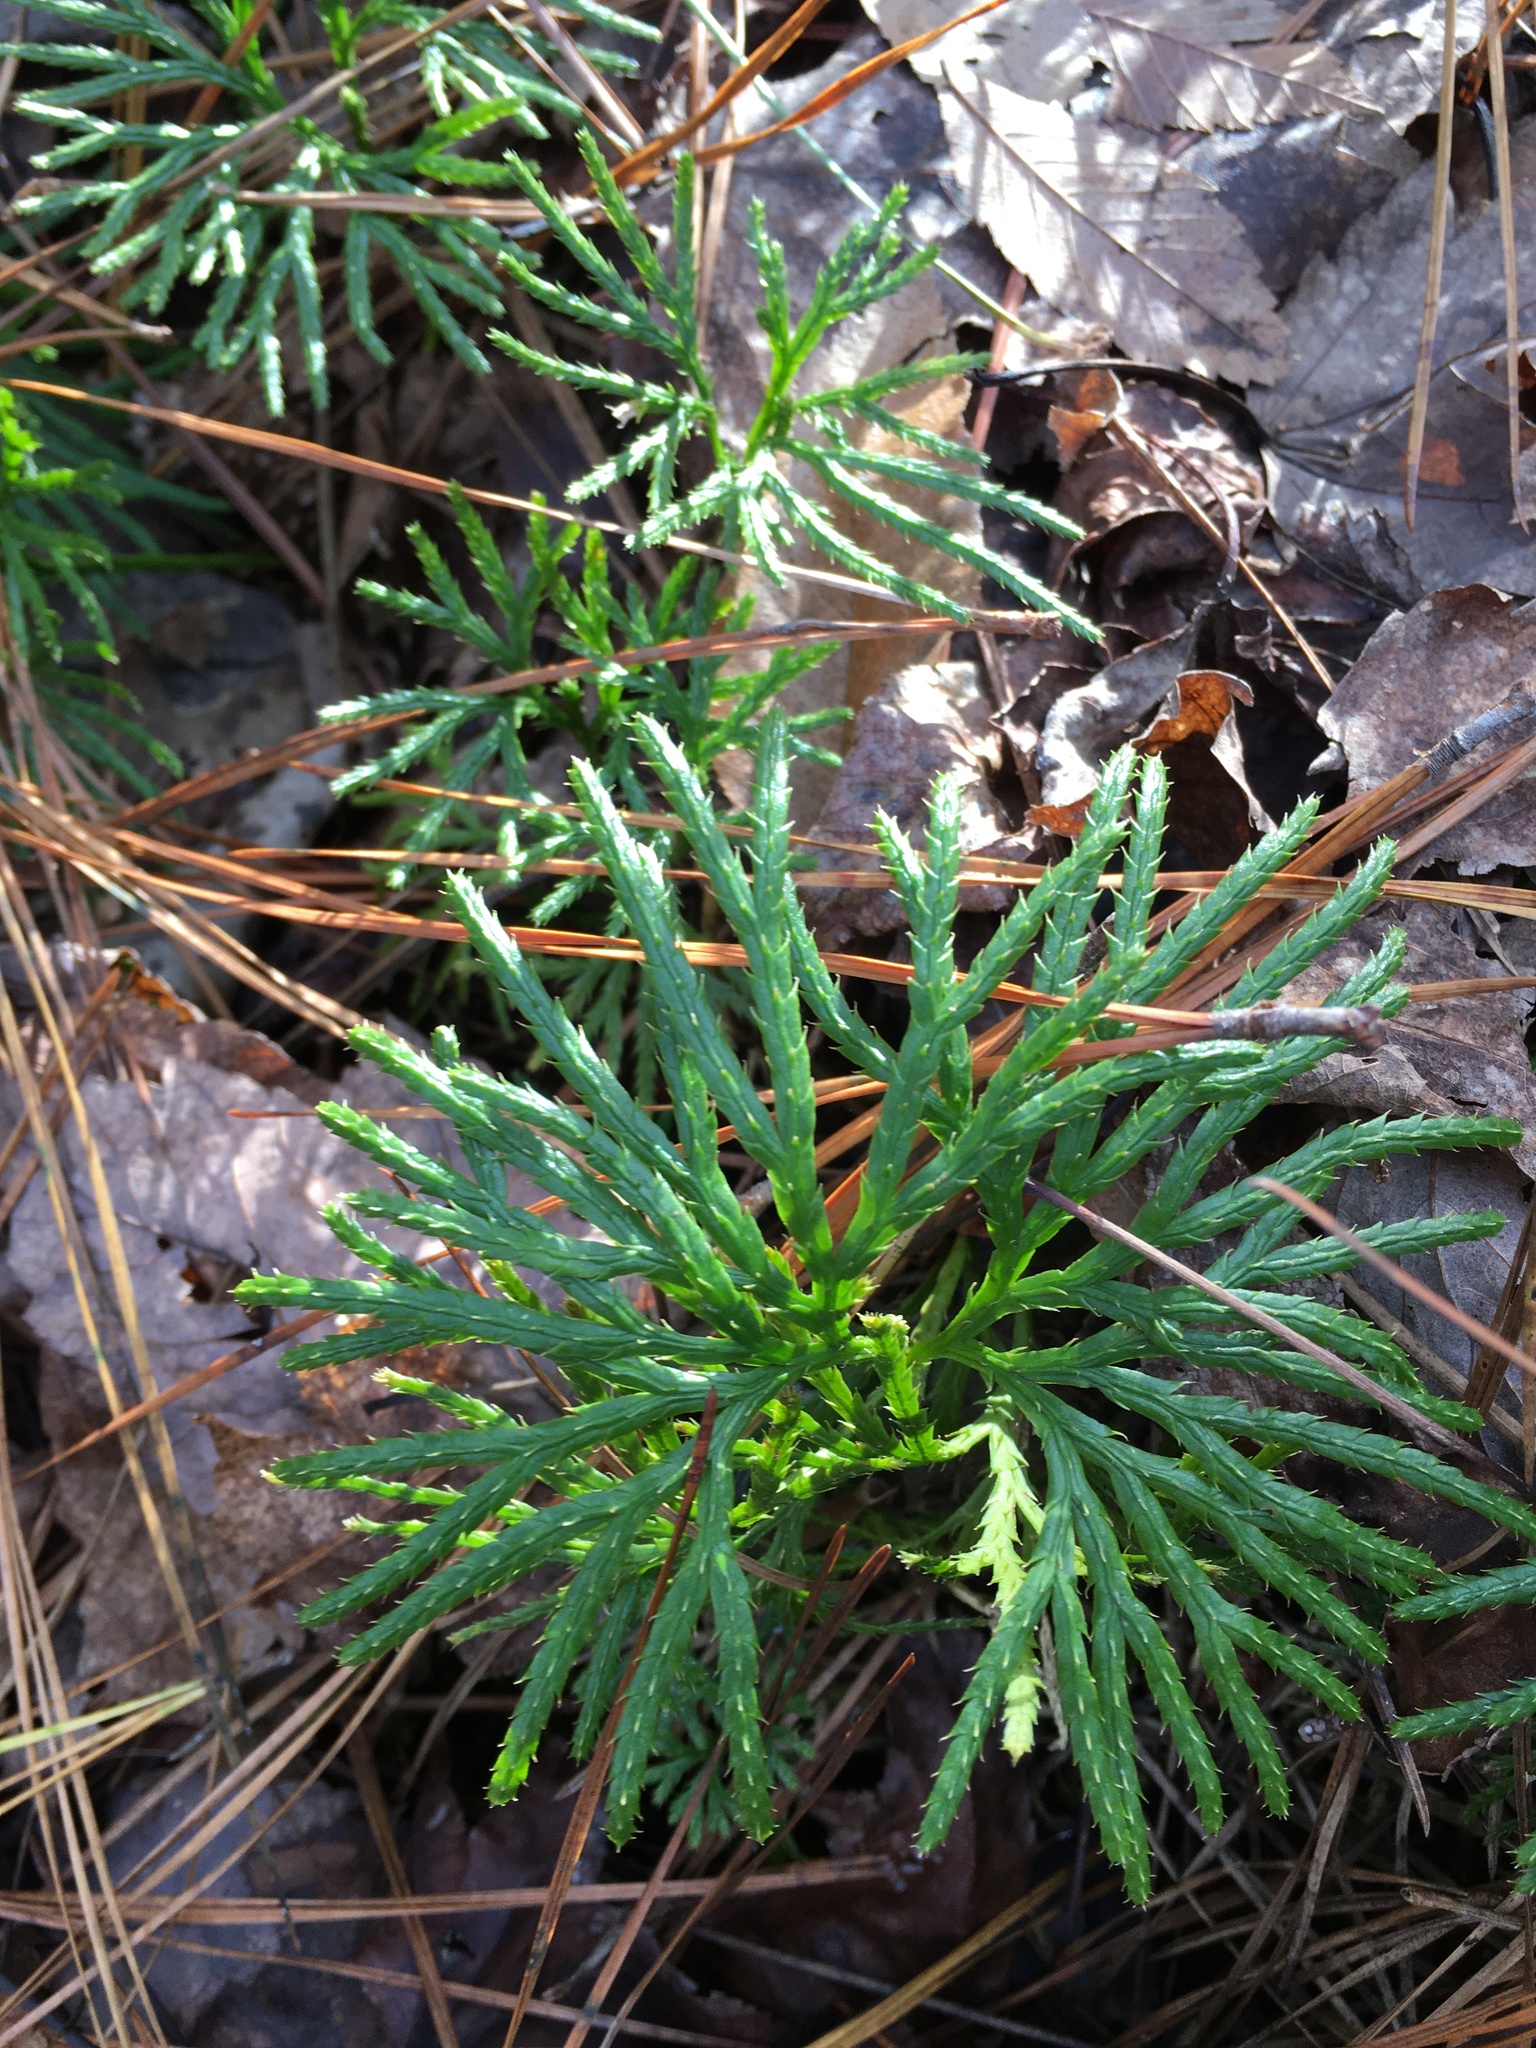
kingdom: Plantae
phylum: Tracheophyta
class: Lycopodiopsida
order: Lycopodiales
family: Lycopodiaceae
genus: Diphasiastrum
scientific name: Diphasiastrum digitatum
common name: Southern running-pine
